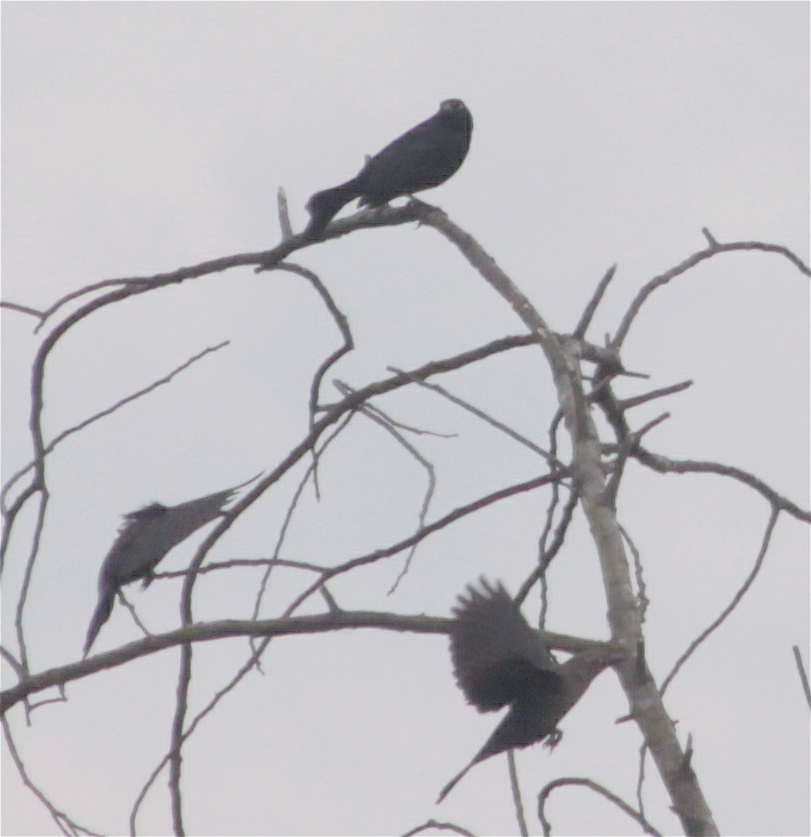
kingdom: Animalia
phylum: Chordata
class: Aves
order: Passeriformes
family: Icteridae
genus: Quiscalus
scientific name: Quiscalus lugubris
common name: Carib grackle
